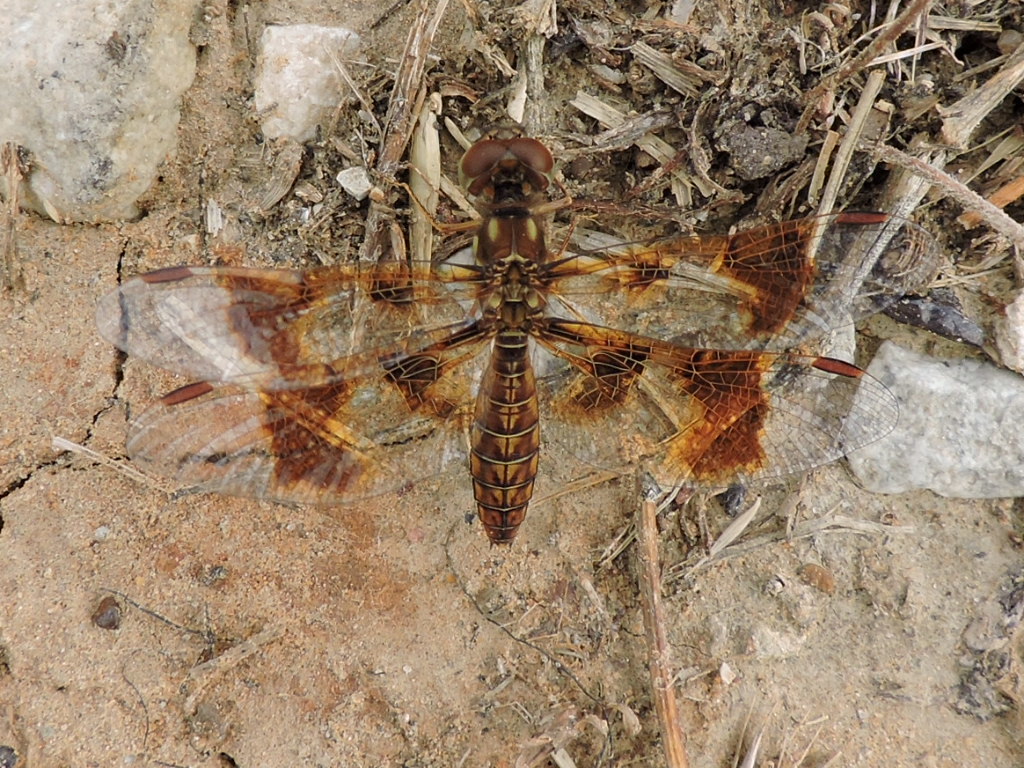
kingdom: Animalia
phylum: Arthropoda
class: Insecta
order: Odonata
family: Libellulidae
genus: Perithemis
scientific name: Perithemis tenera
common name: Eastern amberwing
